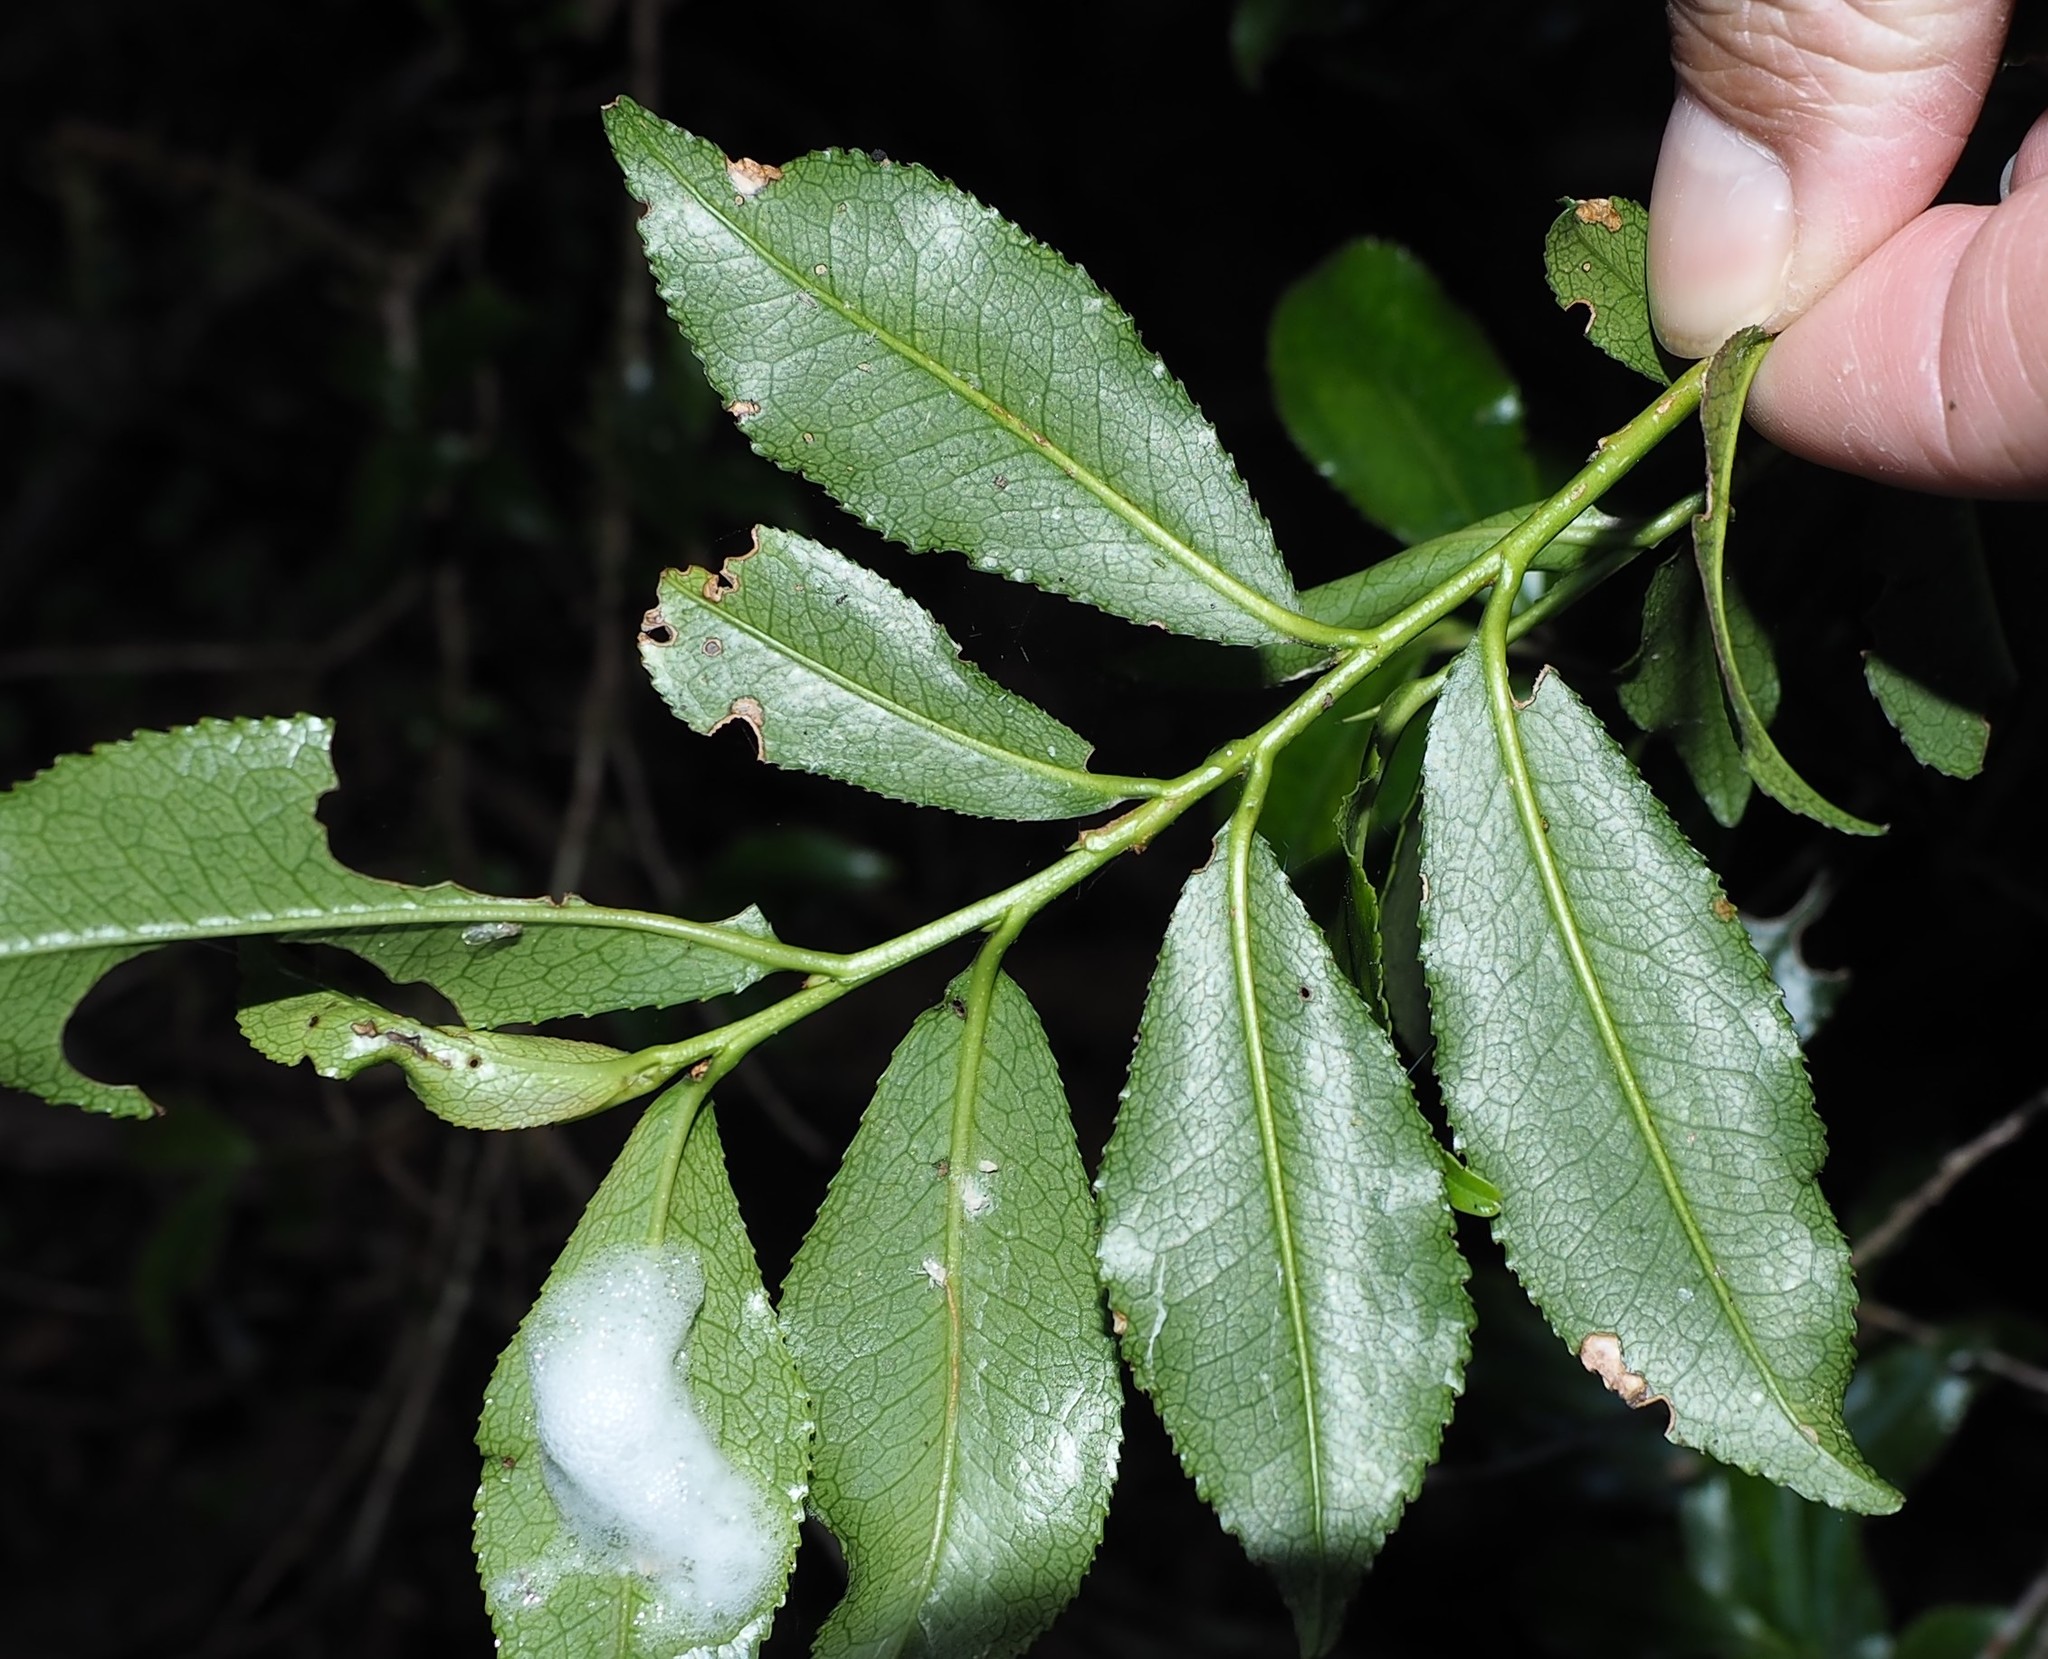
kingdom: Plantae
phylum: Tracheophyta
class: Magnoliopsida
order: Ericales
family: Pentaphylacaceae
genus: Eurya
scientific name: Eurya glaberrima
